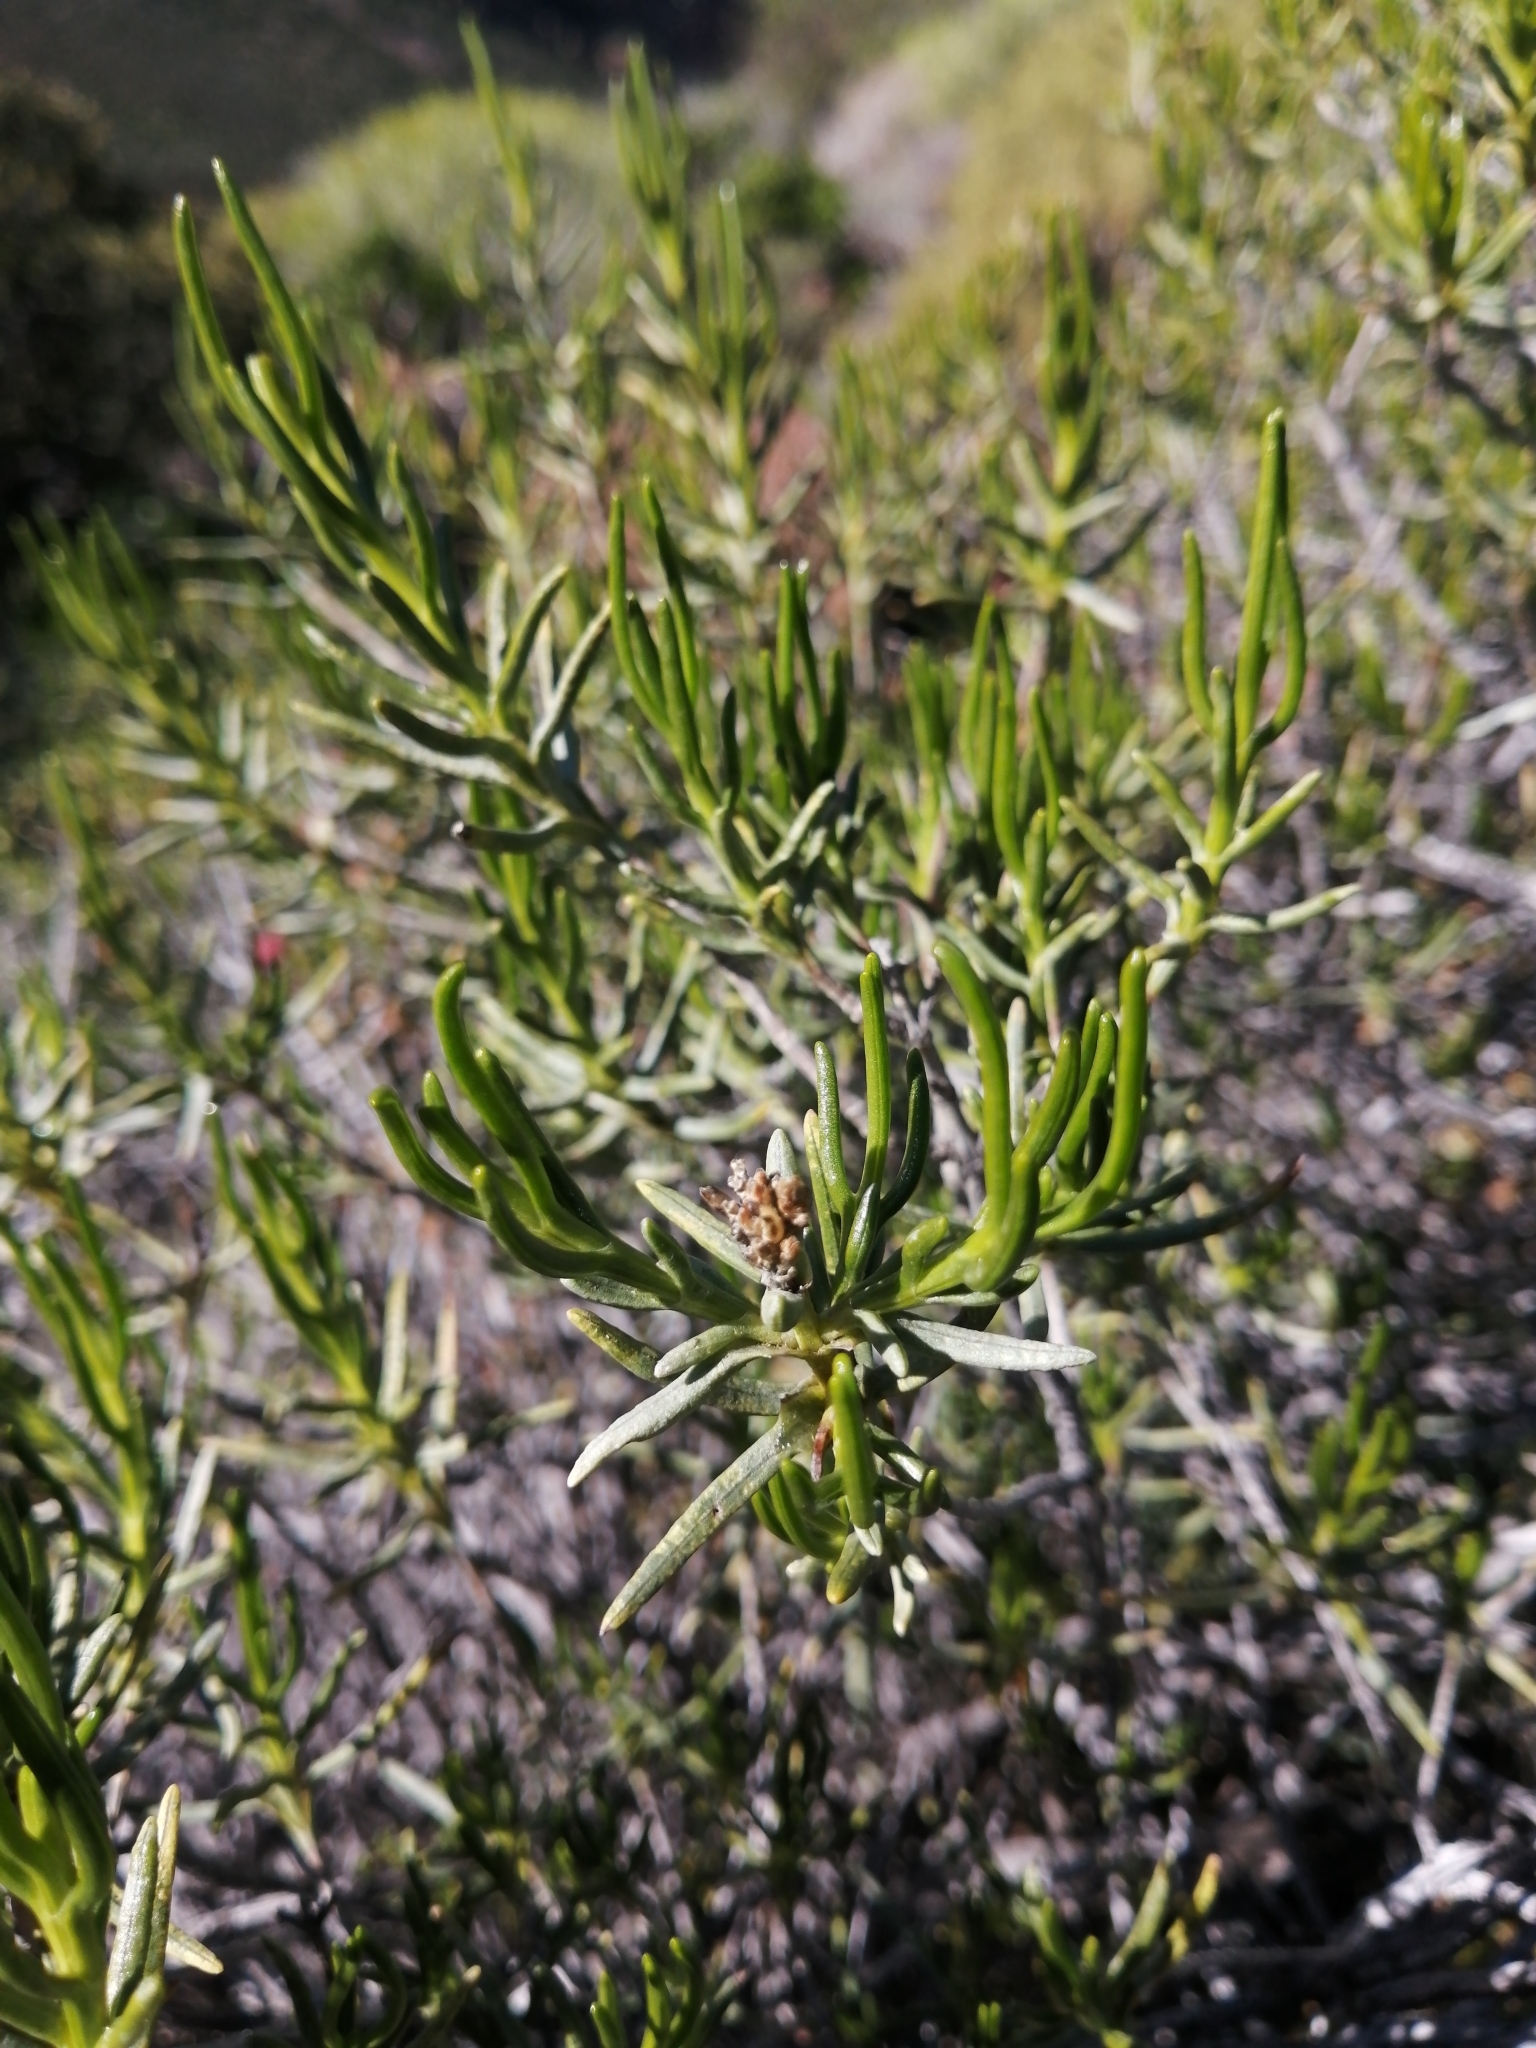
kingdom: Plantae
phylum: Tracheophyta
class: Magnoliopsida
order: Asterales
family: Asteraceae
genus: Pteronia
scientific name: Pteronia paniculata
